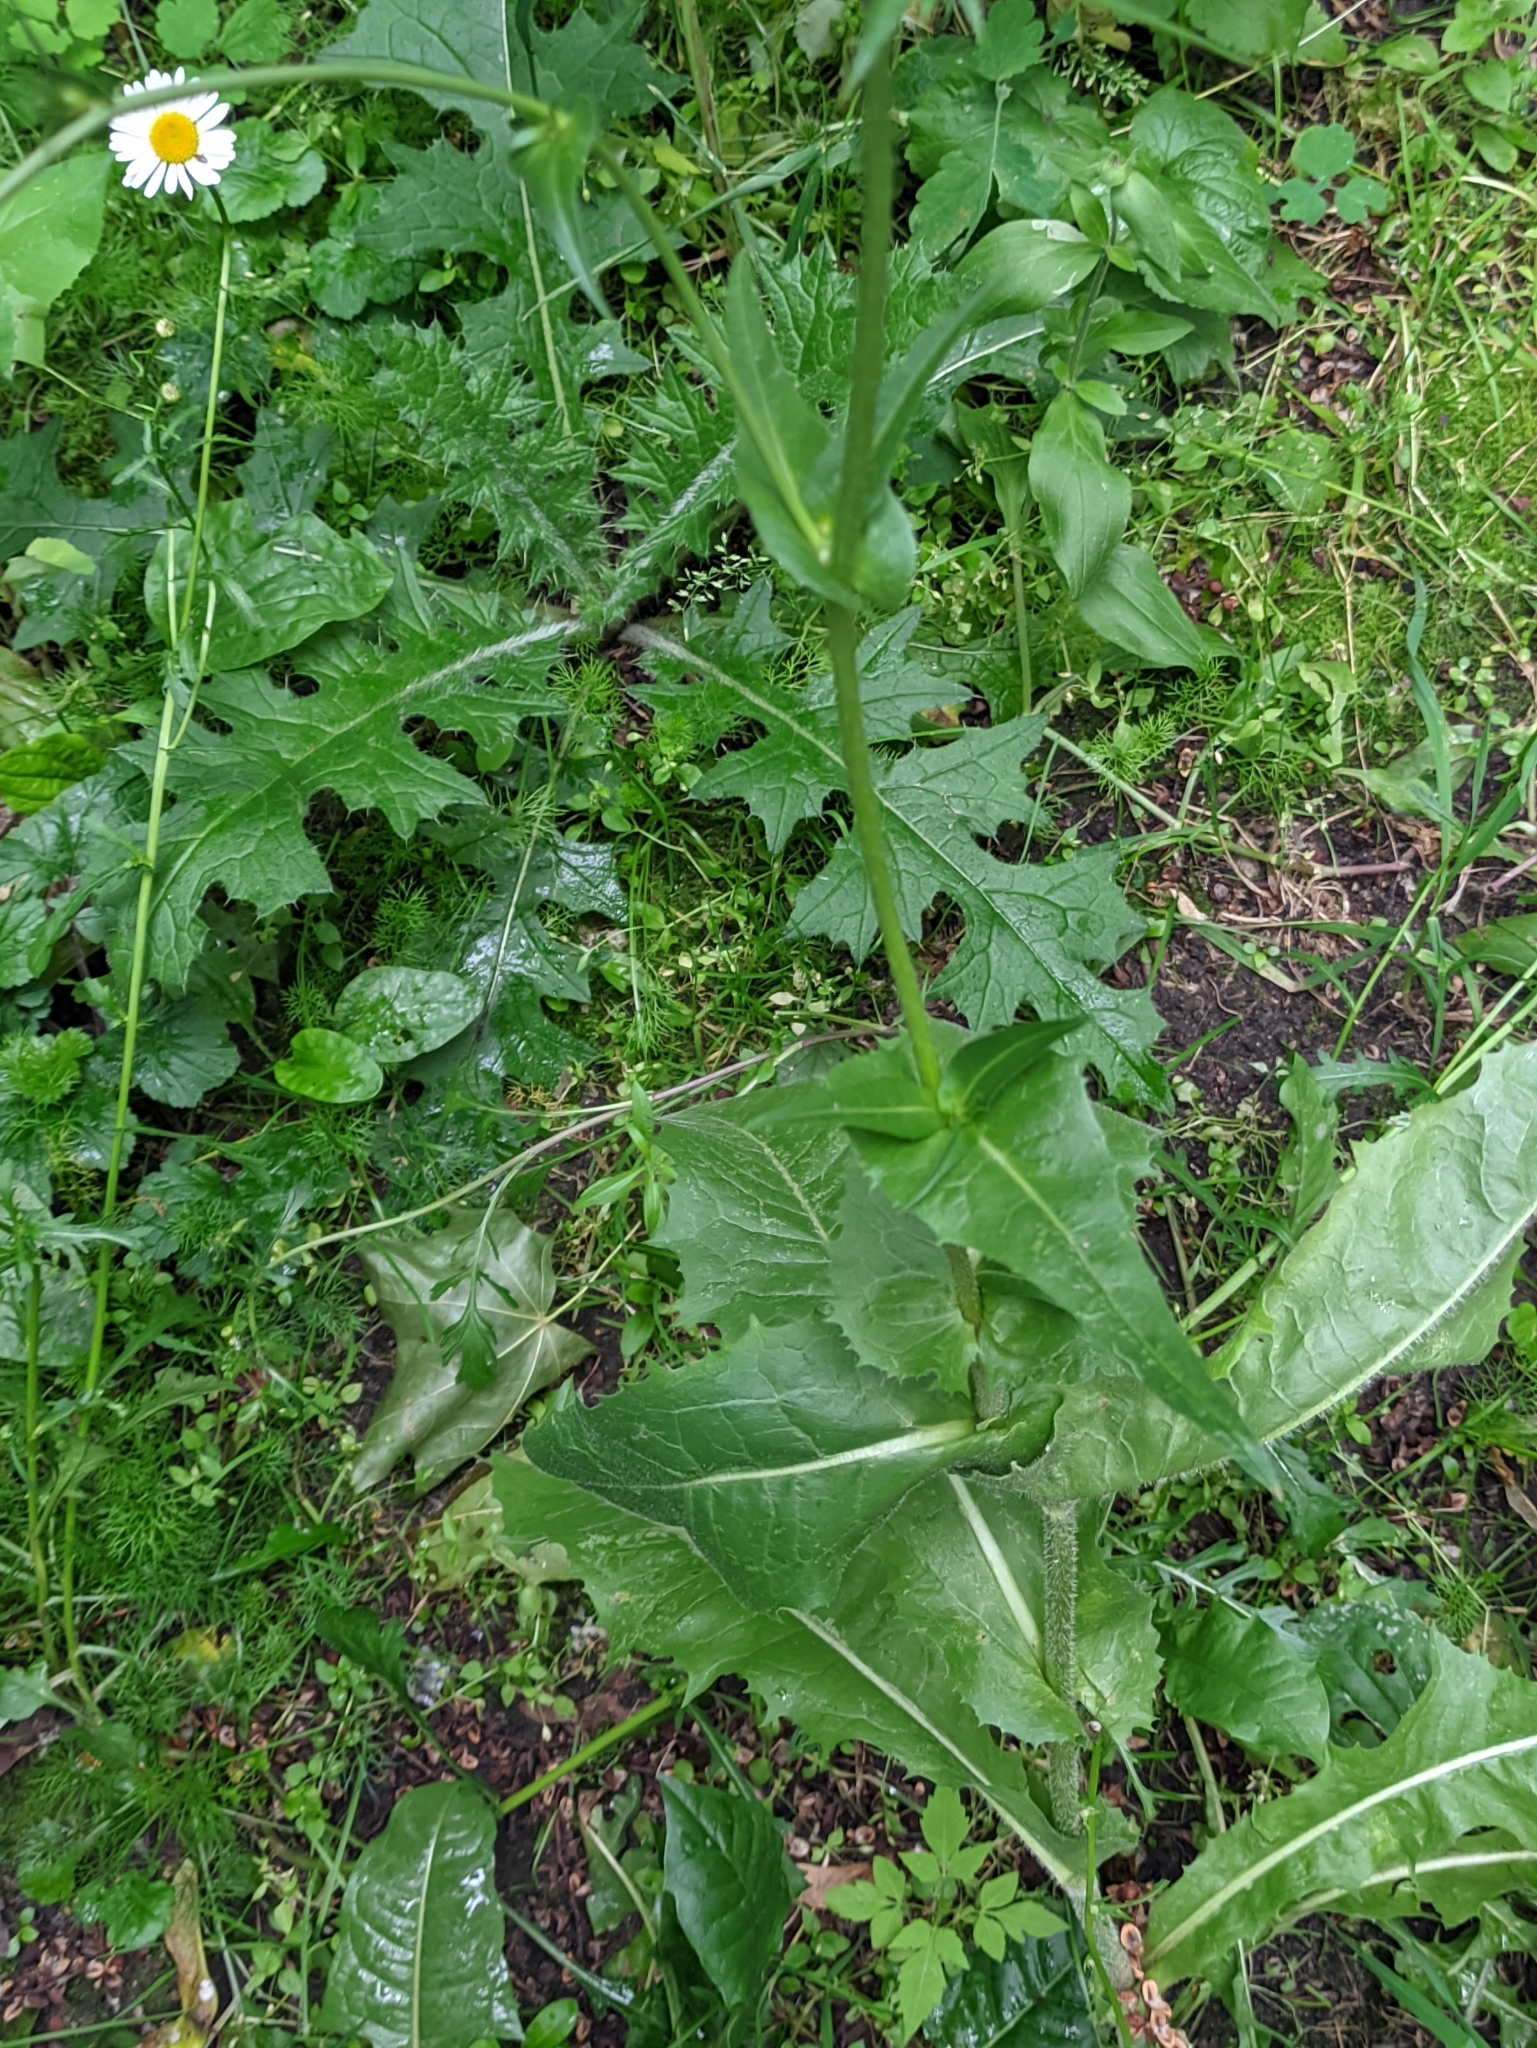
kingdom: Plantae
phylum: Tracheophyta
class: Magnoliopsida
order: Asterales
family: Asteraceae
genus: Cichorium
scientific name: Cichorium intybus
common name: Chicory
